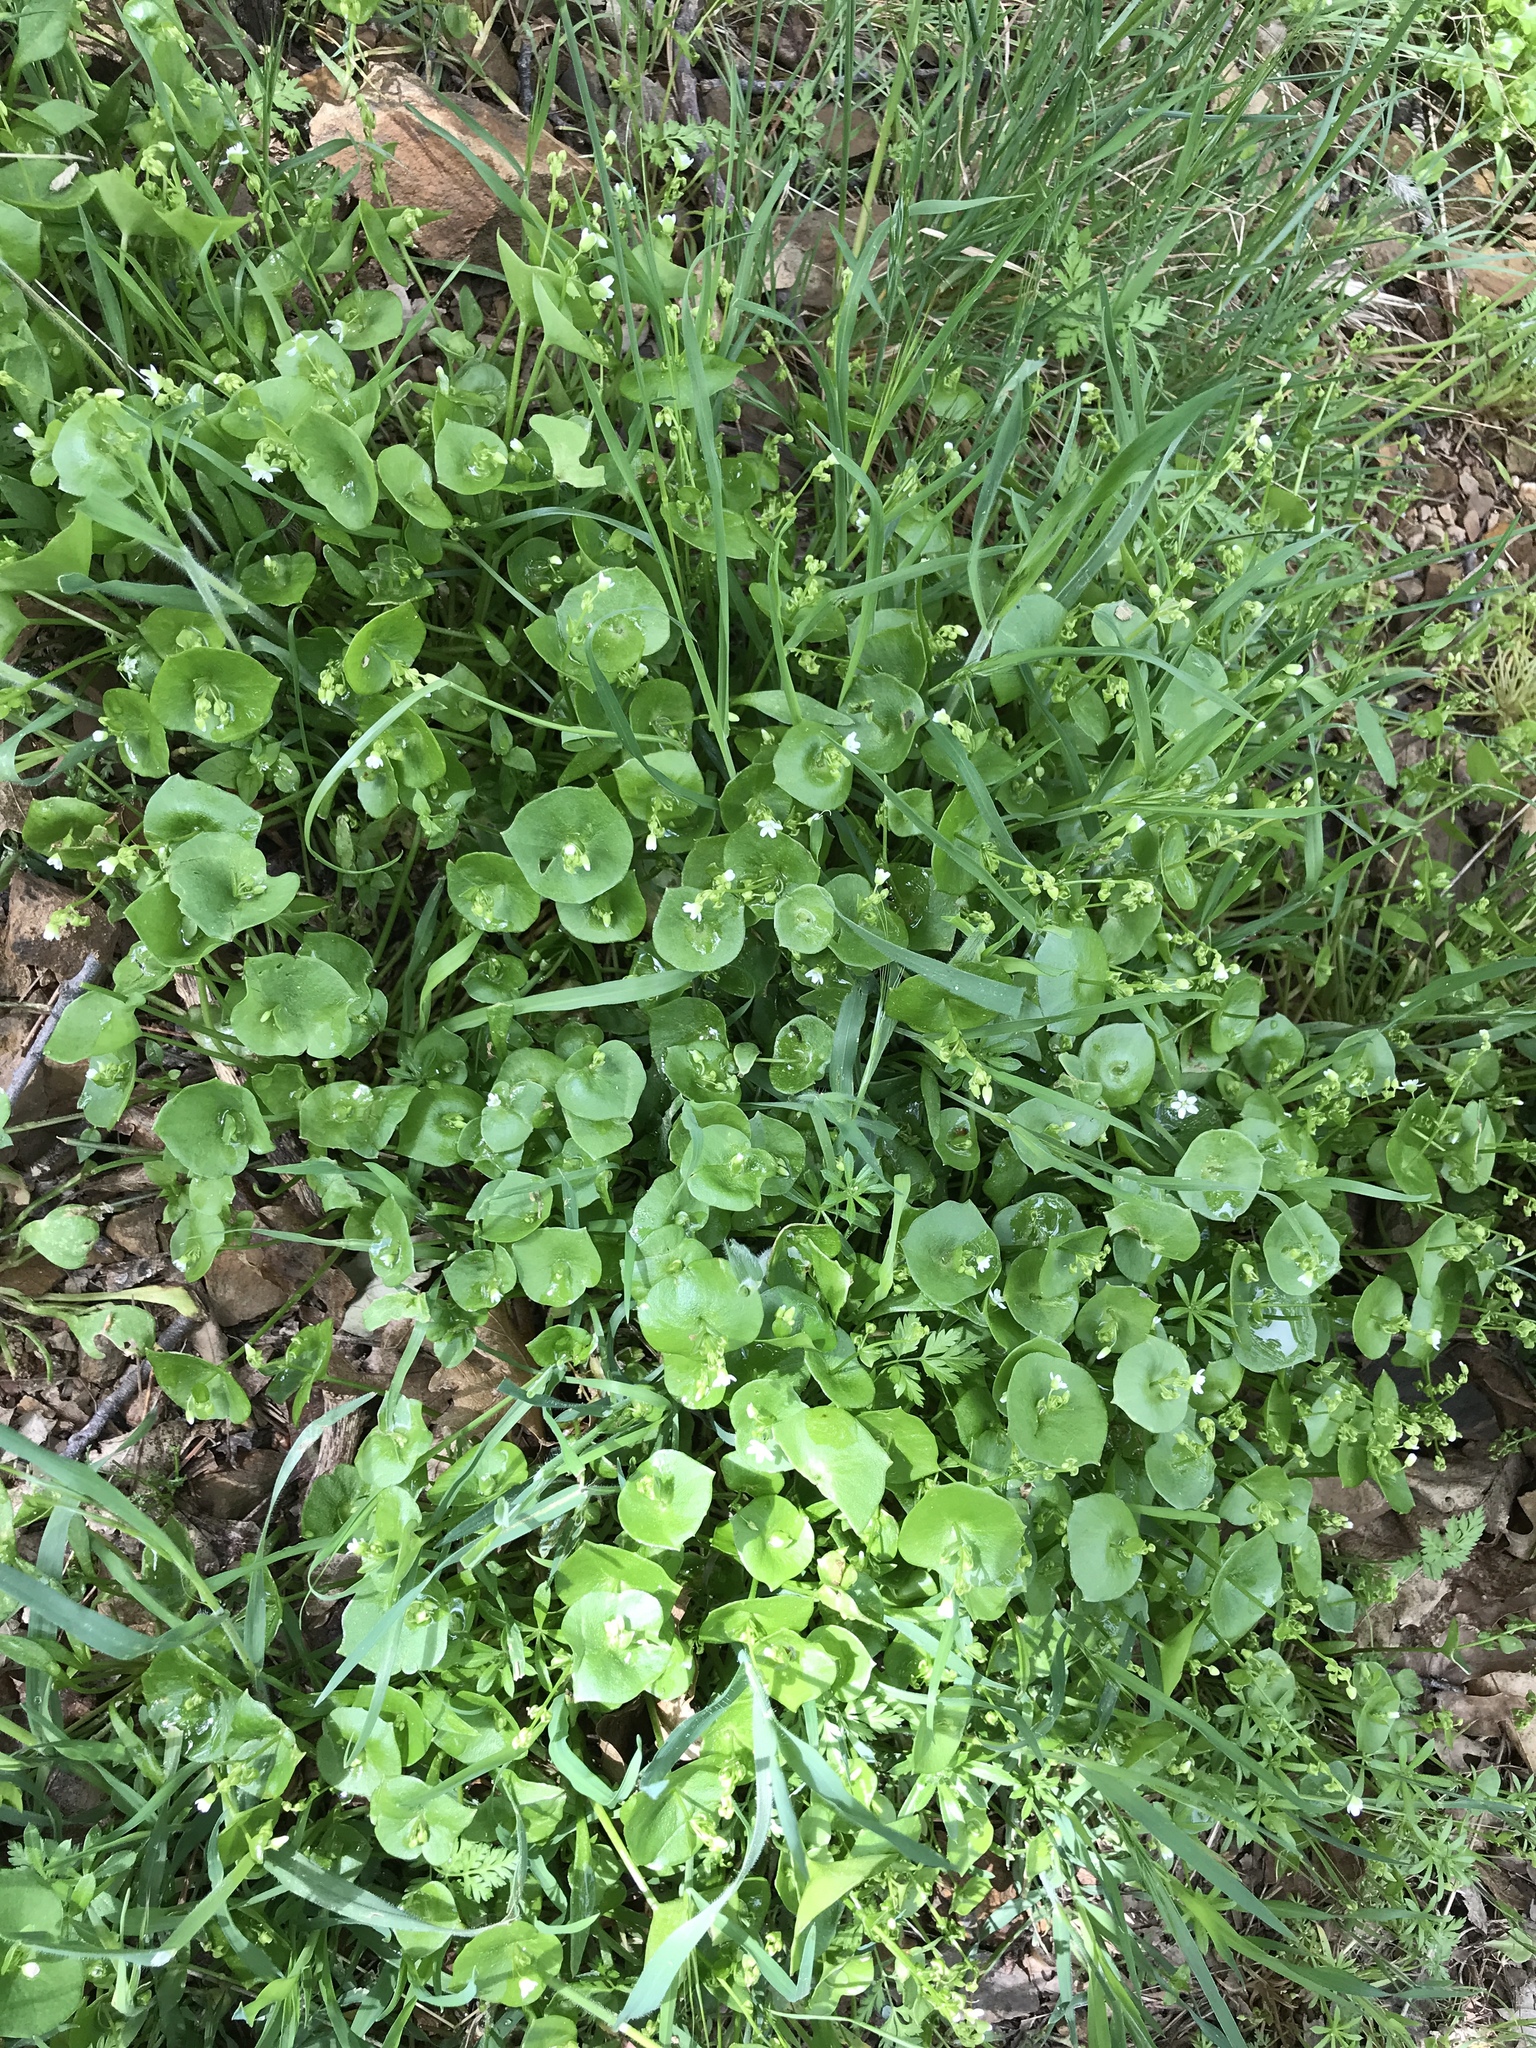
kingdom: Plantae
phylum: Tracheophyta
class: Magnoliopsida
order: Caryophyllales
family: Montiaceae
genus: Claytonia
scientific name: Claytonia perfoliata
